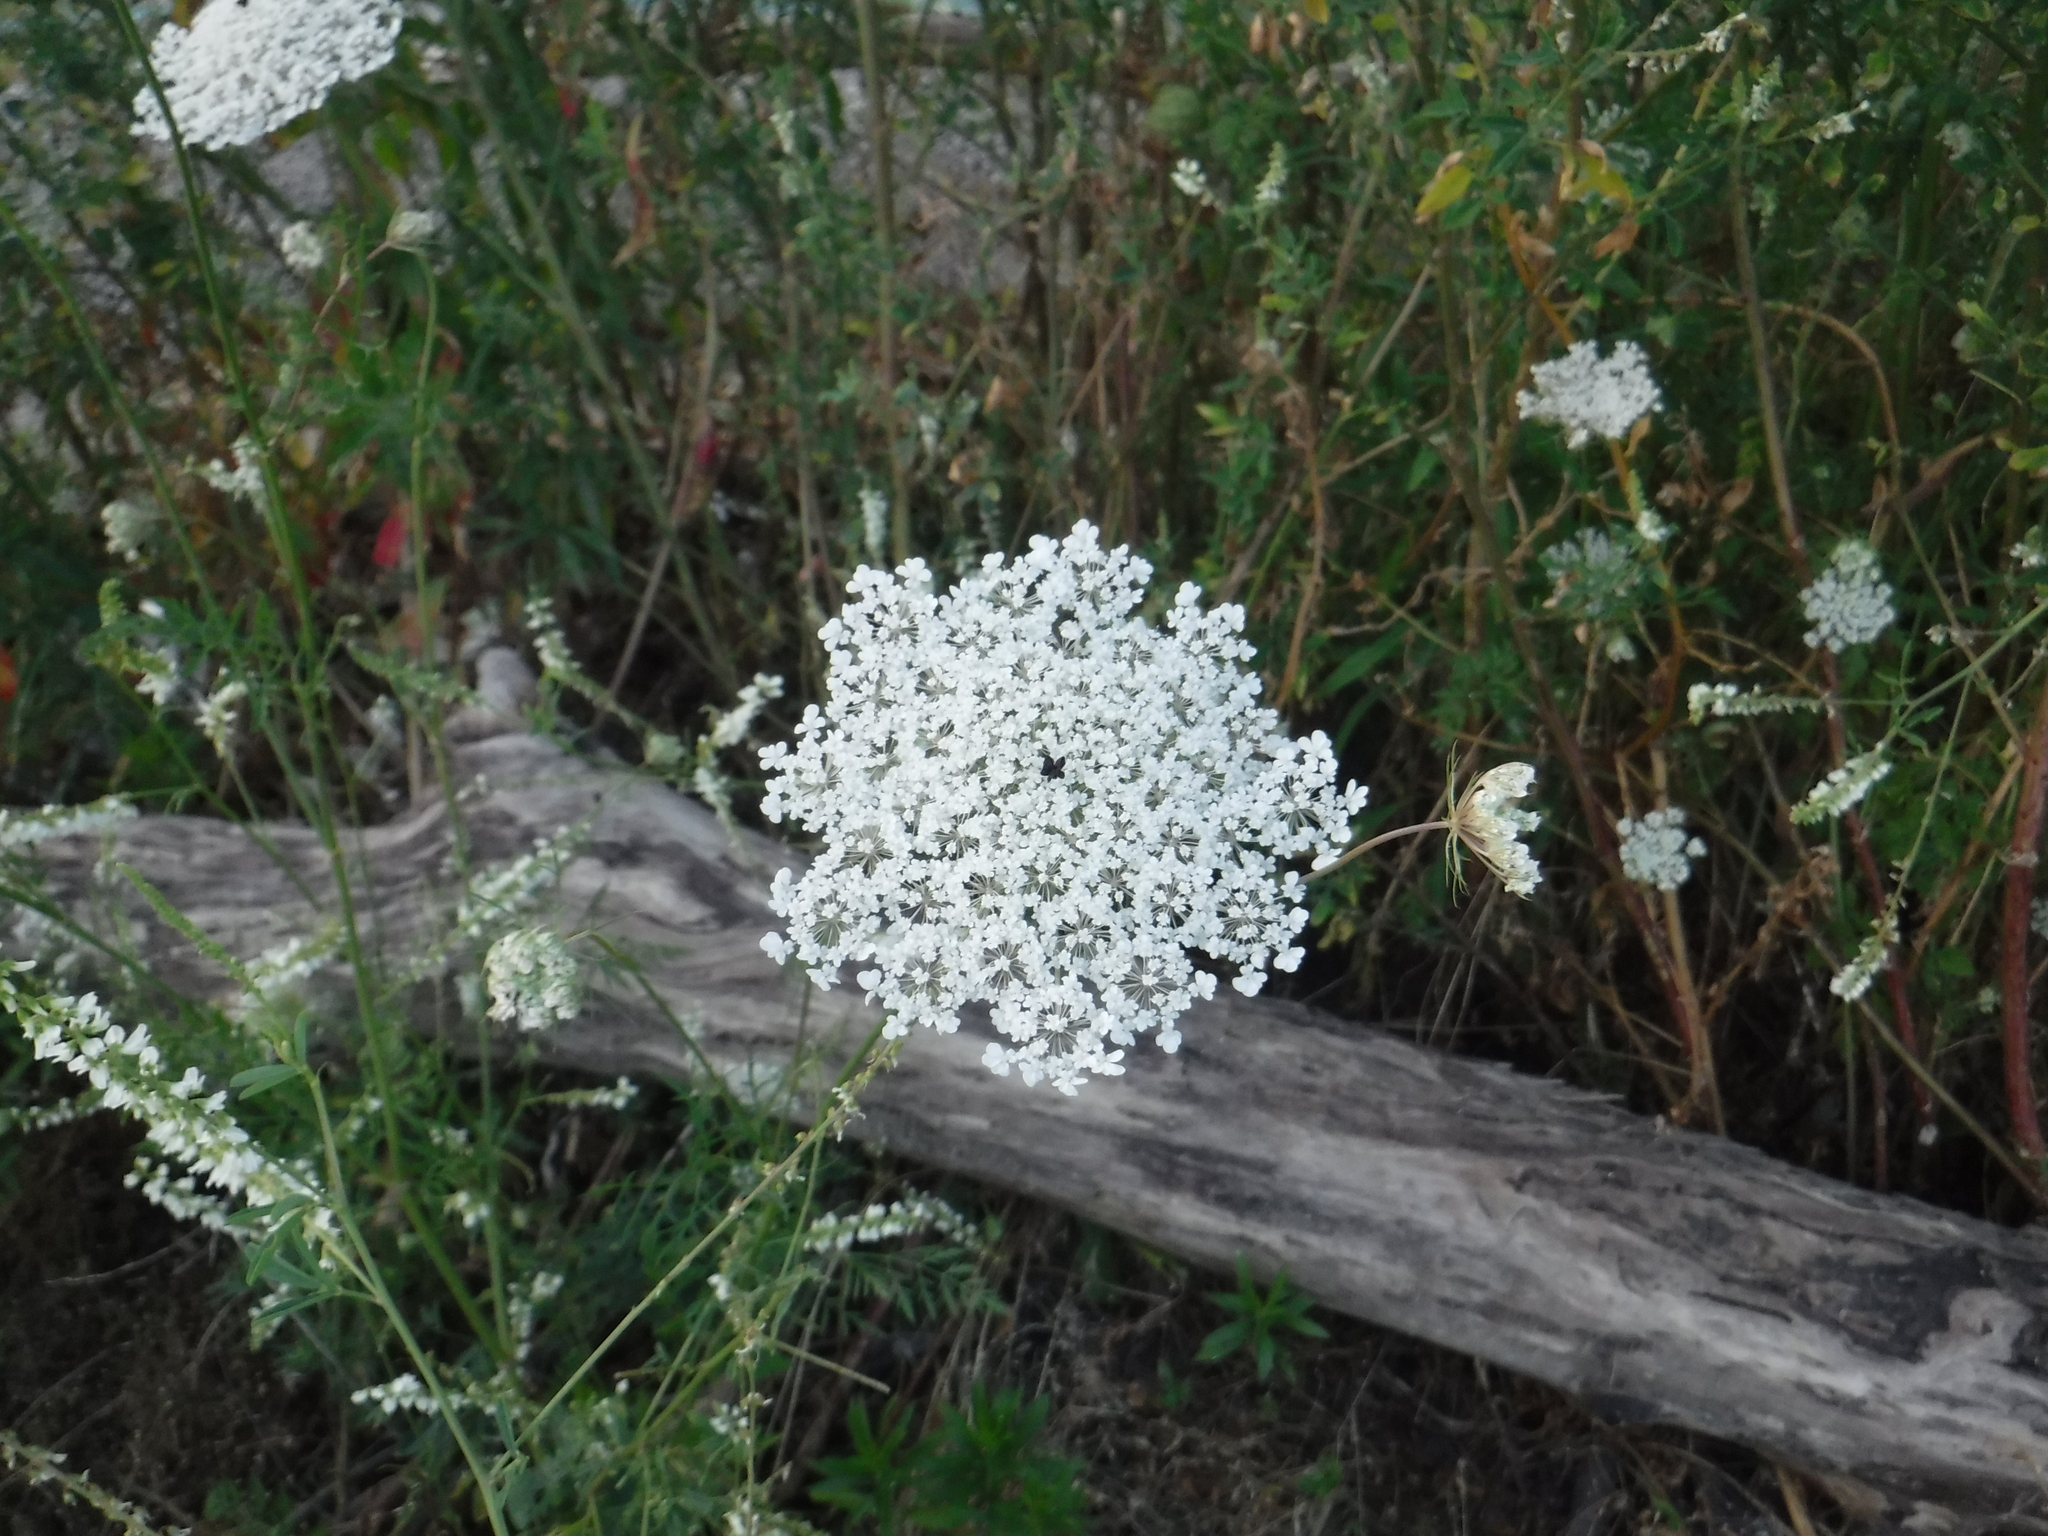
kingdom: Plantae
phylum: Tracheophyta
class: Magnoliopsida
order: Apiales
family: Apiaceae
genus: Daucus
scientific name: Daucus carota
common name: Wild carrot
